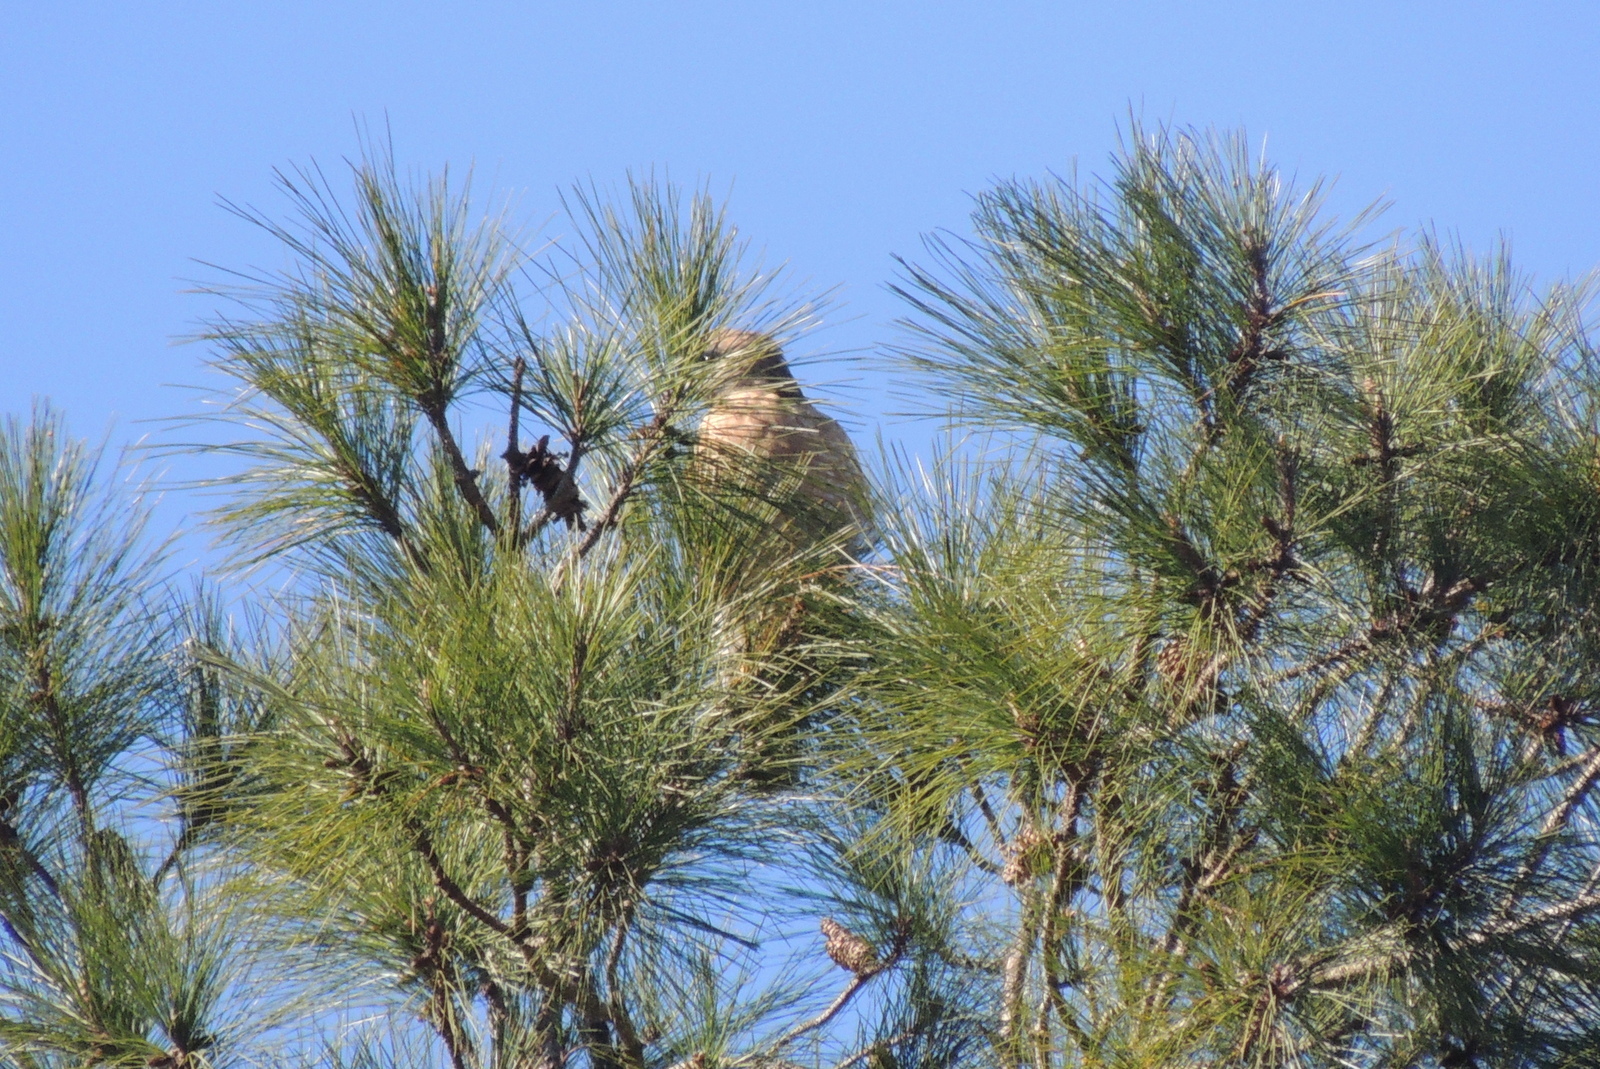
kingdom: Animalia
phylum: Chordata
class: Aves
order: Accipitriformes
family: Accipitridae
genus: Buteo
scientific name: Buteo lineatus
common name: Red-shouldered hawk
